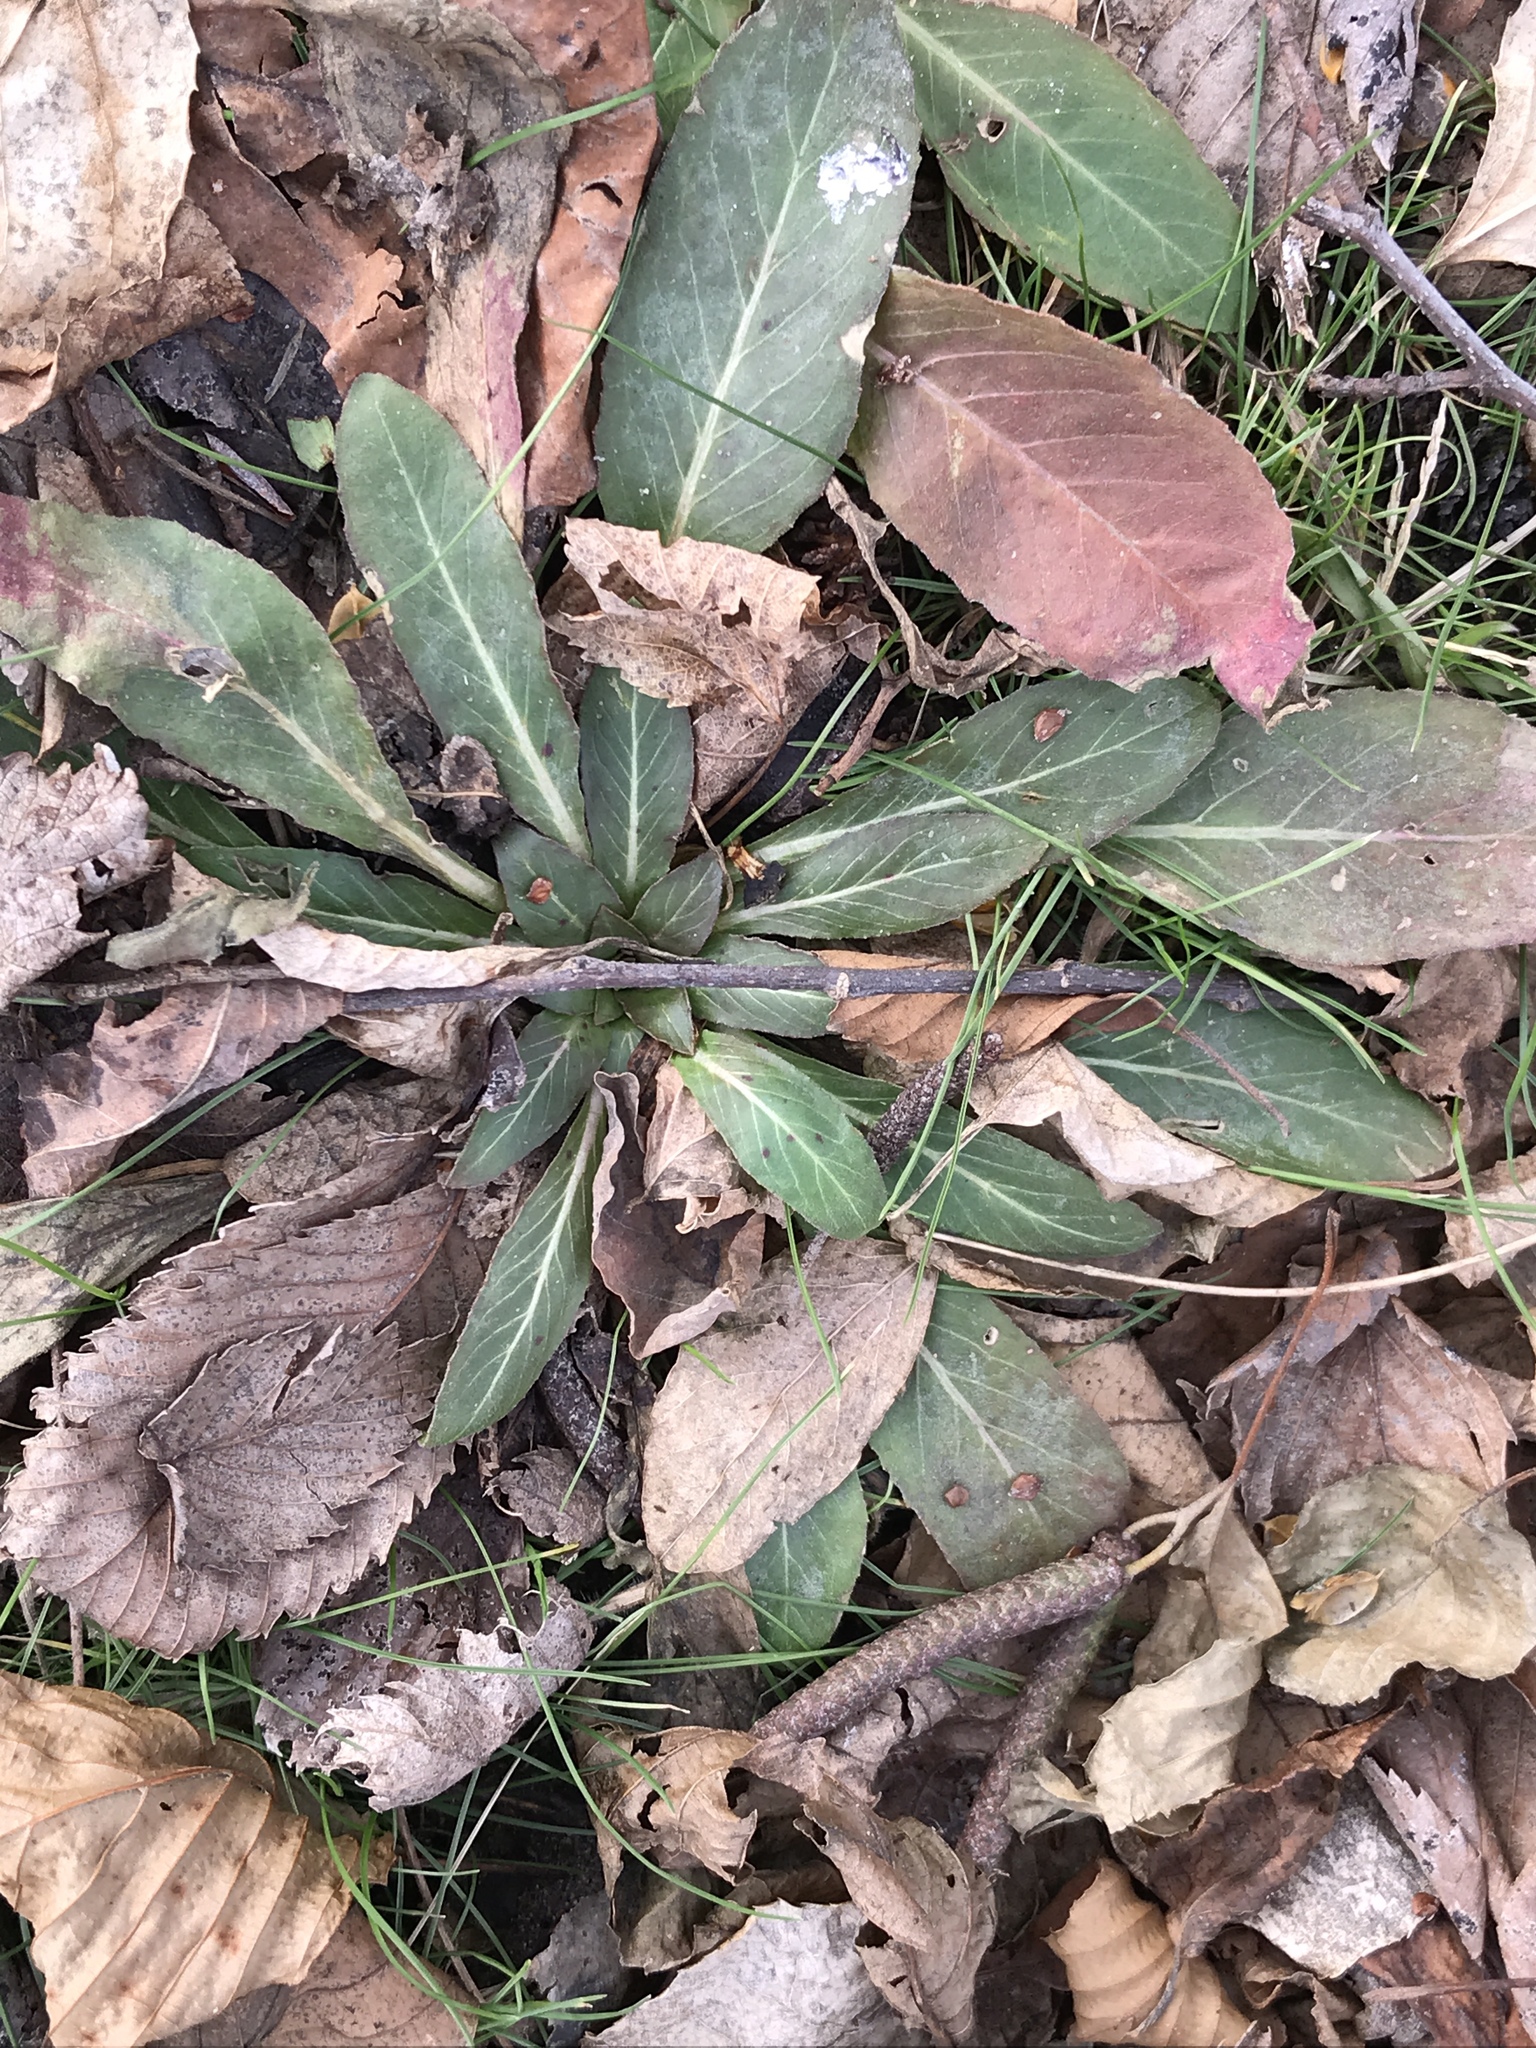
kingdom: Plantae
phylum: Tracheophyta
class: Magnoliopsida
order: Myrtales
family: Onagraceae
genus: Oenothera
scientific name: Oenothera biennis
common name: Common evening-primrose
